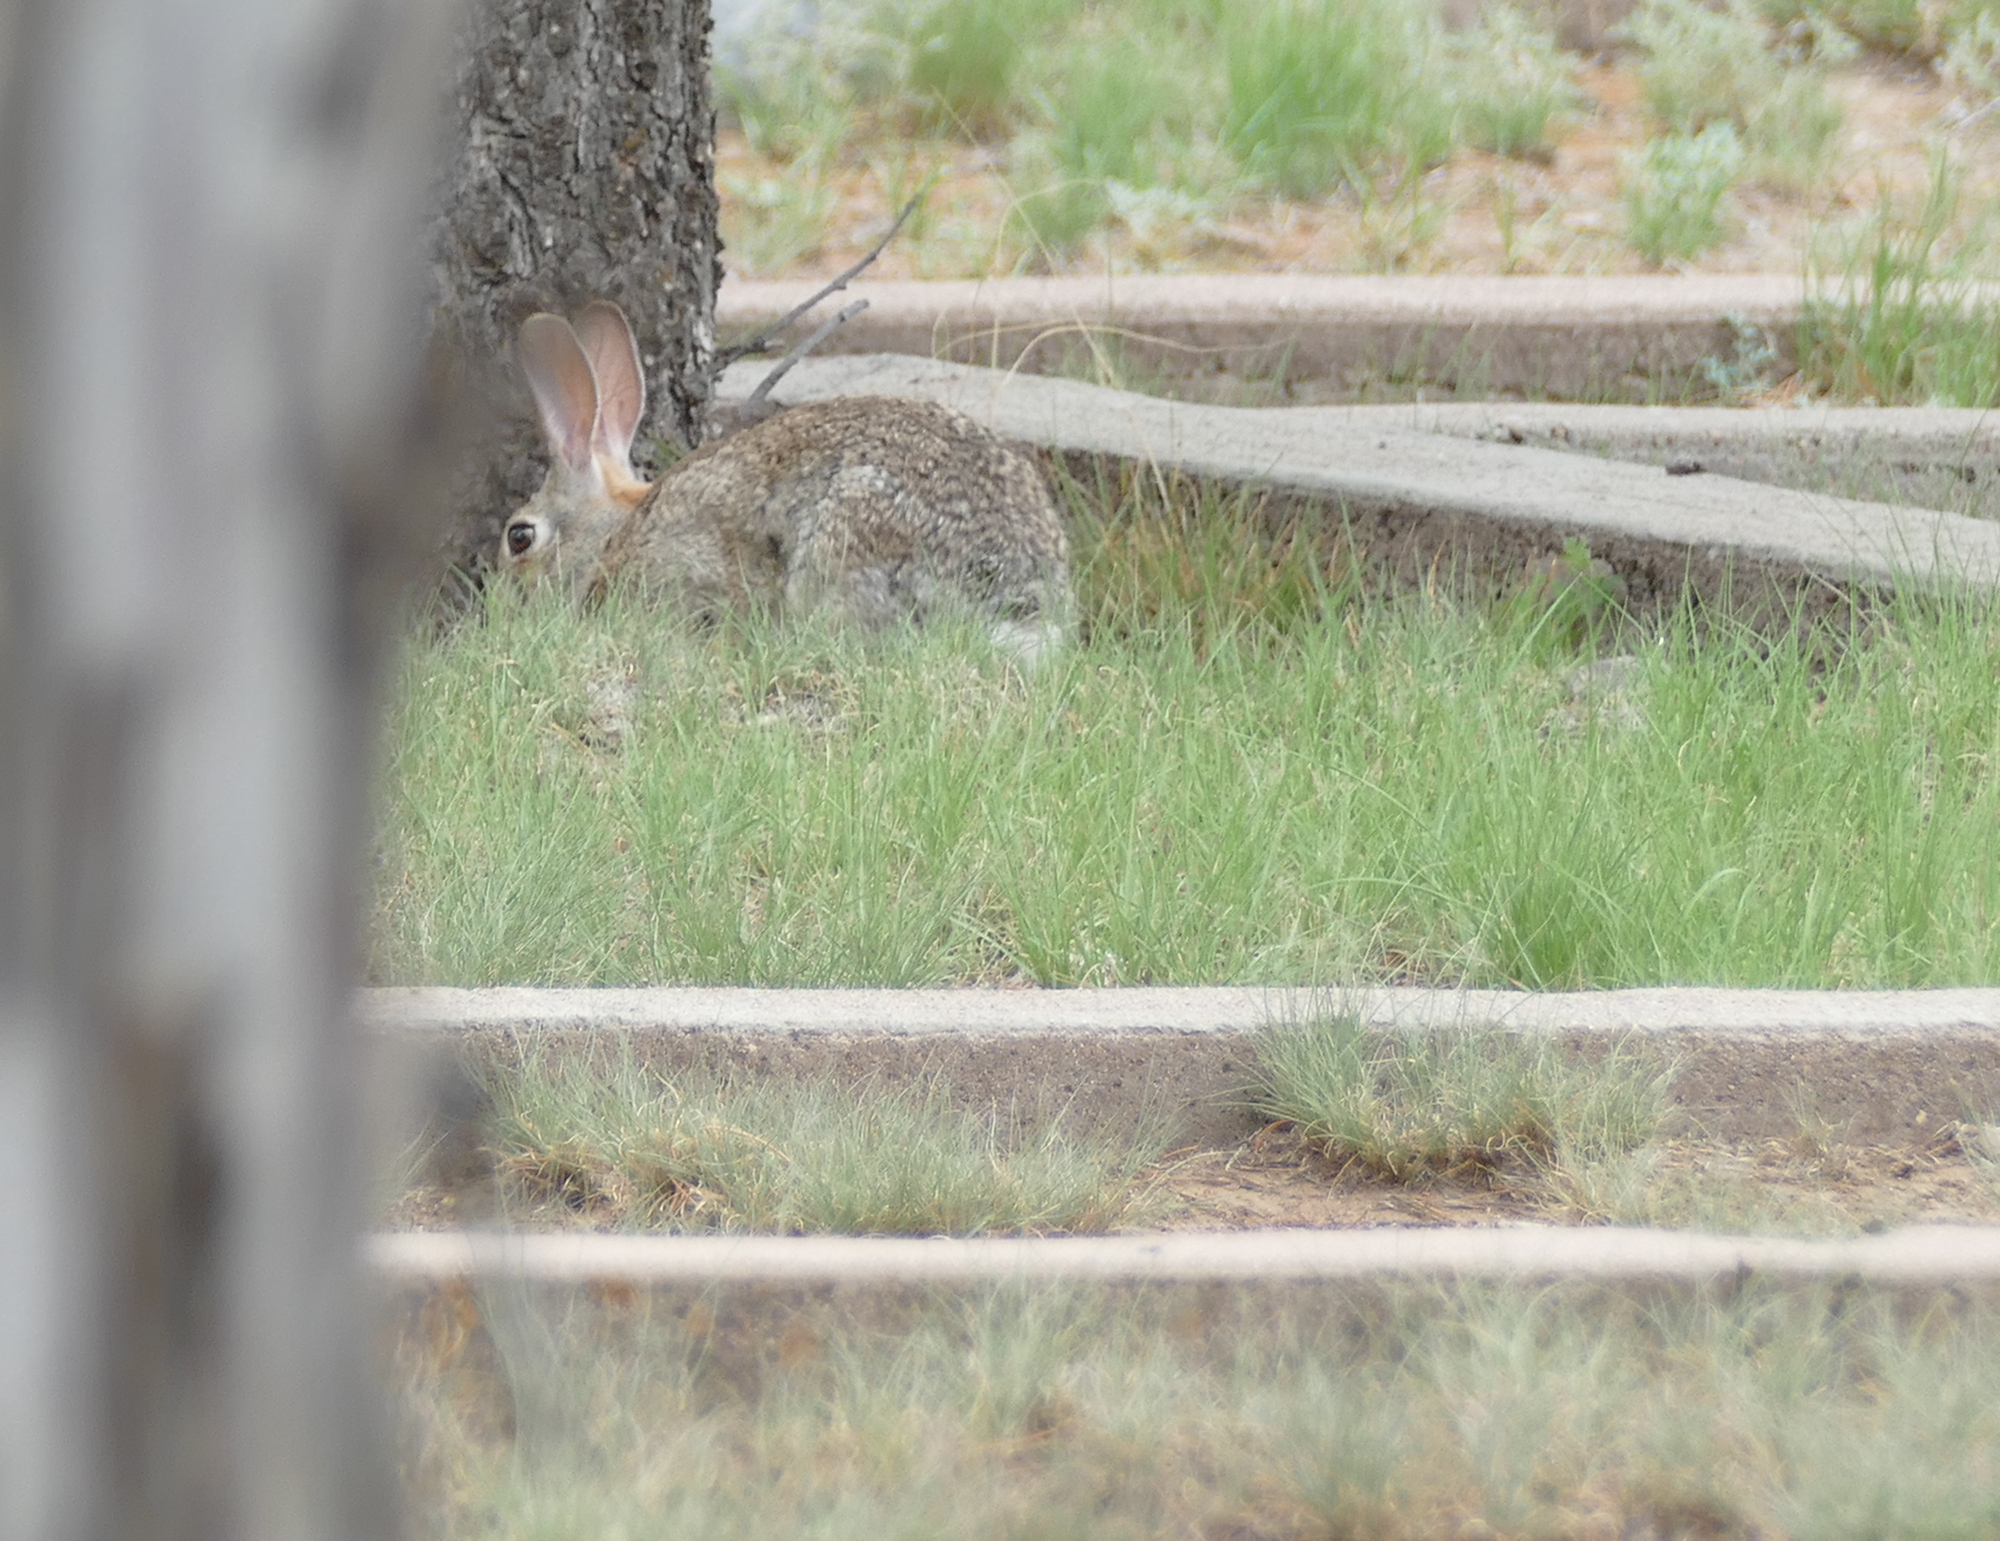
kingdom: Animalia
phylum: Chordata
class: Mammalia
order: Lagomorpha
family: Leporidae
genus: Sylvilagus
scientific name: Sylvilagus audubonii
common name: Desert cottontail
